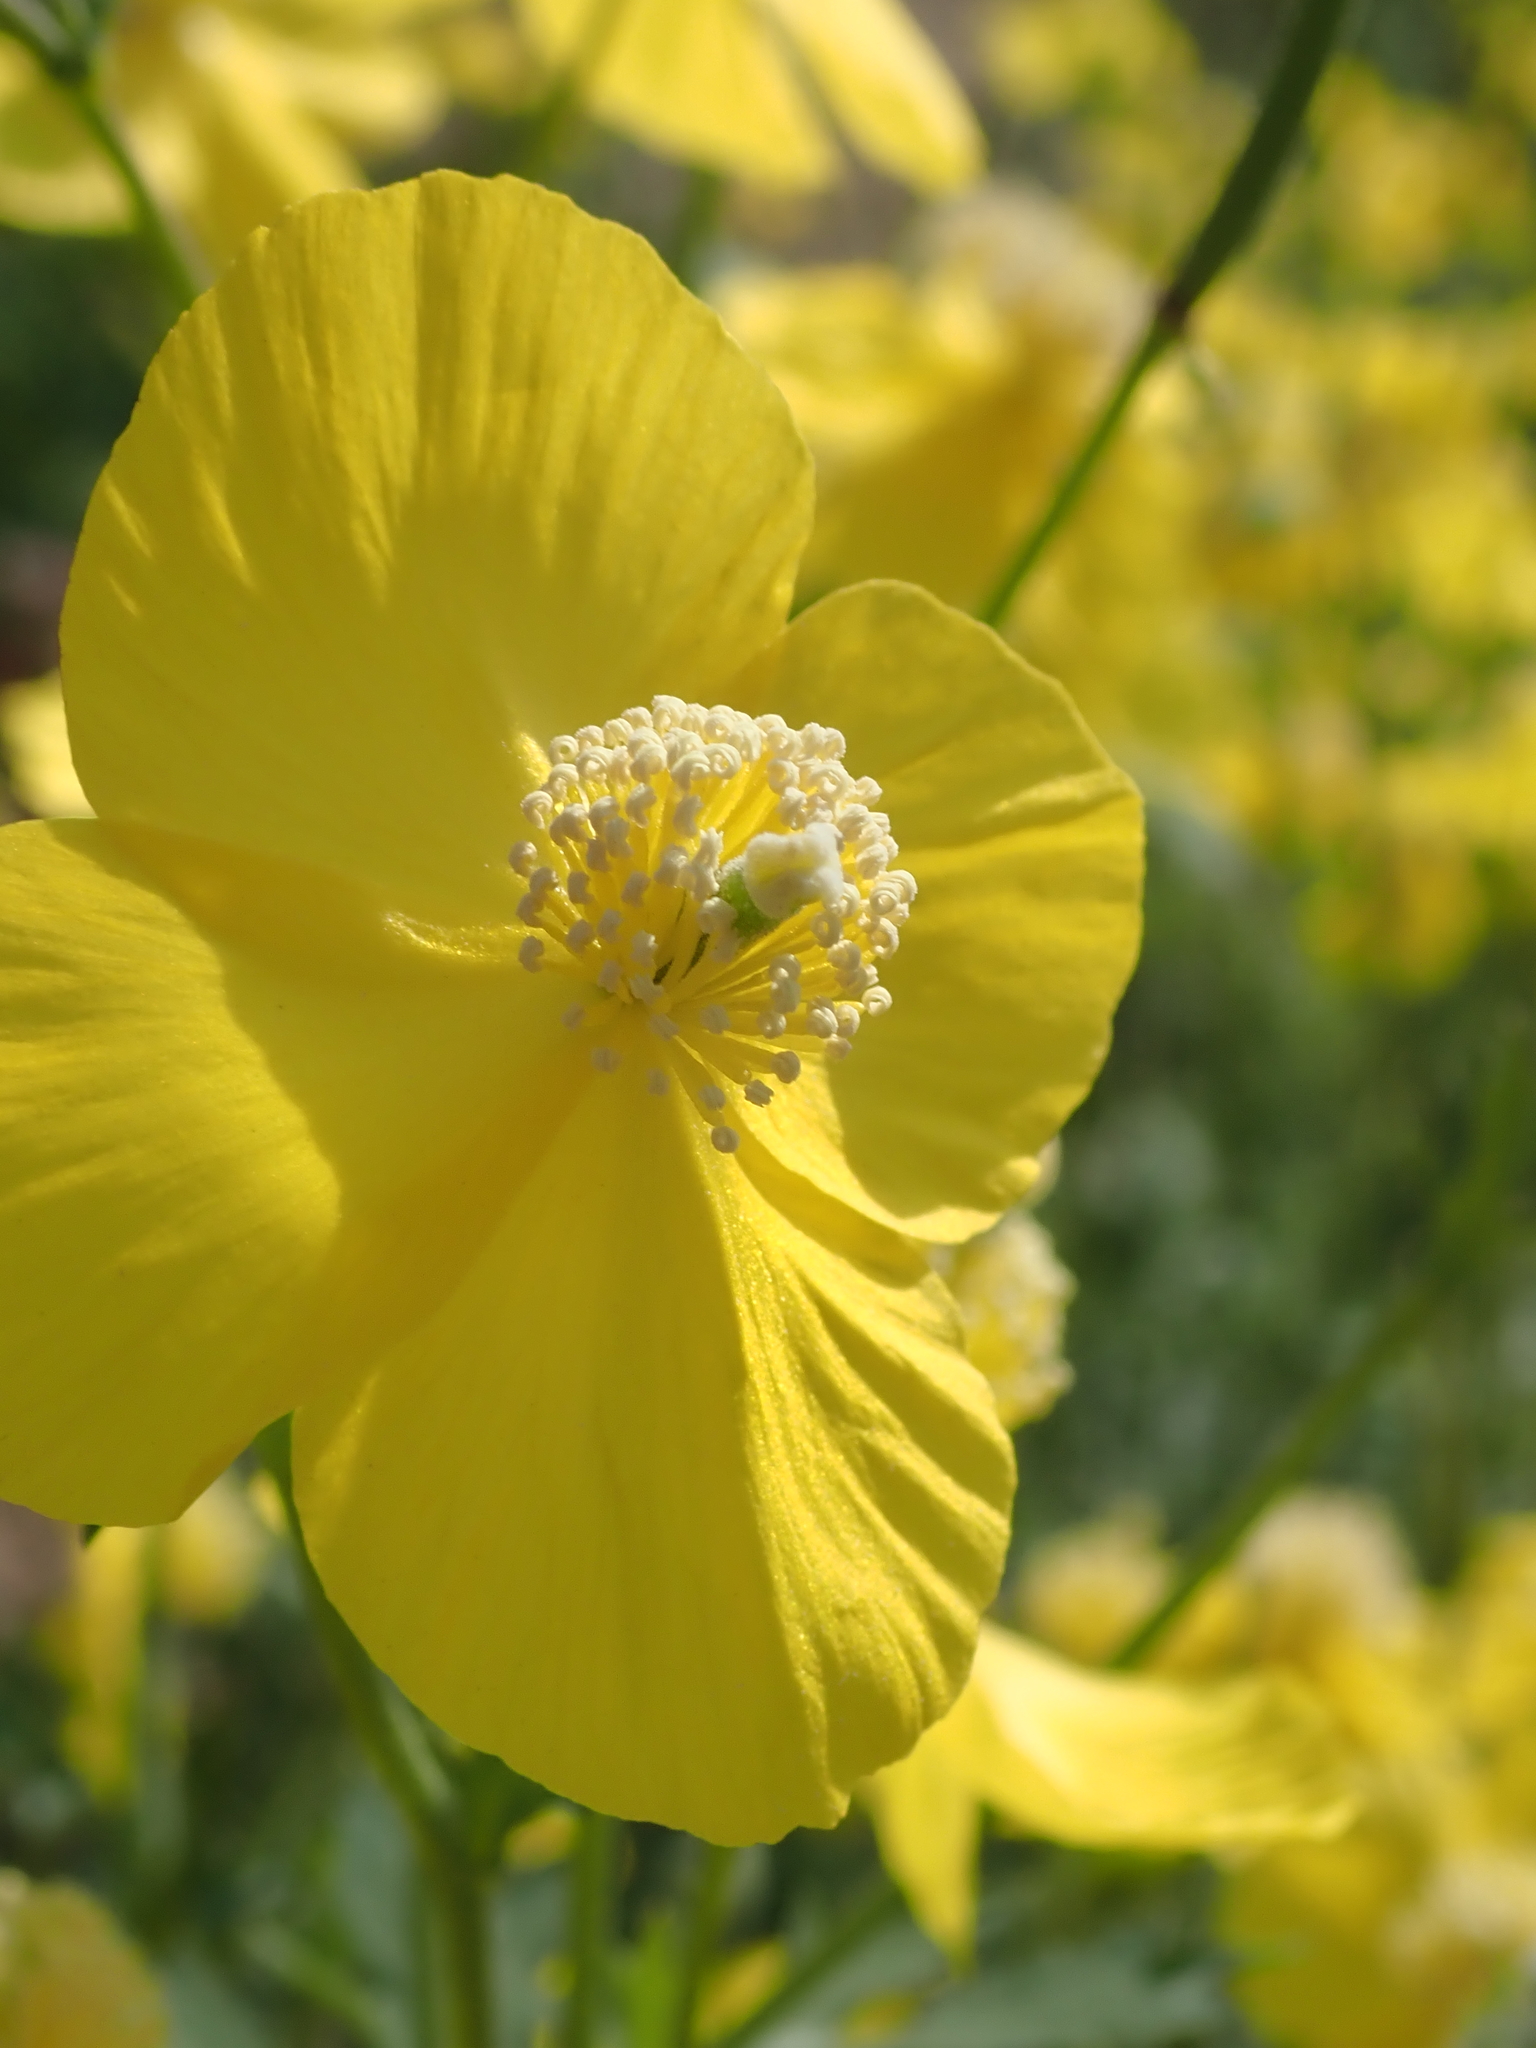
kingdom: Plantae
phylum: Tracheophyta
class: Magnoliopsida
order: Ranunculales
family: Papaveraceae
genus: Dicranostigma
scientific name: Dicranostigma leptopodum
